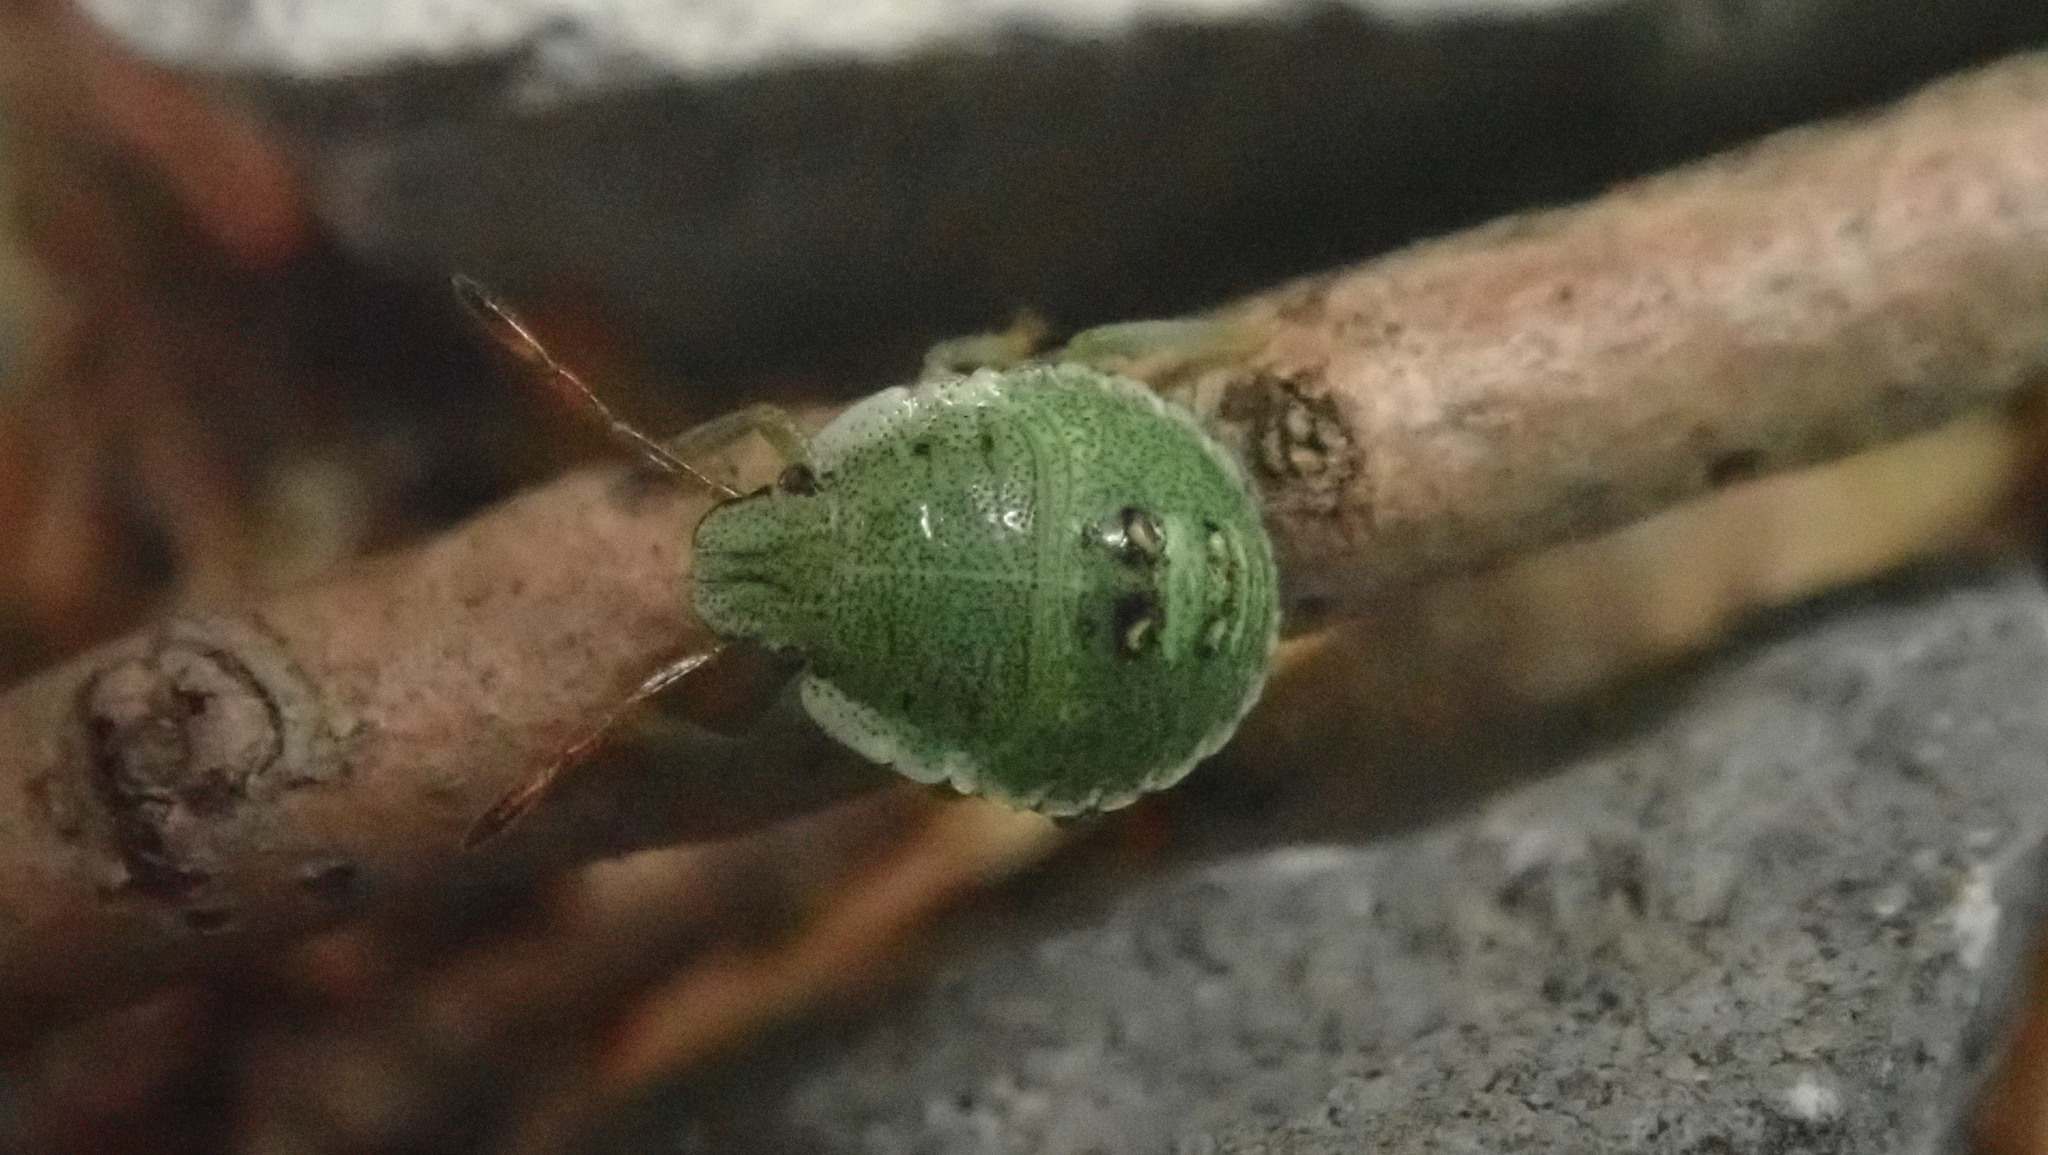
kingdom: Animalia
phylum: Arthropoda
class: Insecta
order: Hemiptera
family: Pentatomidae
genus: Palomena
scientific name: Palomena prasina
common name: Green shieldbug
